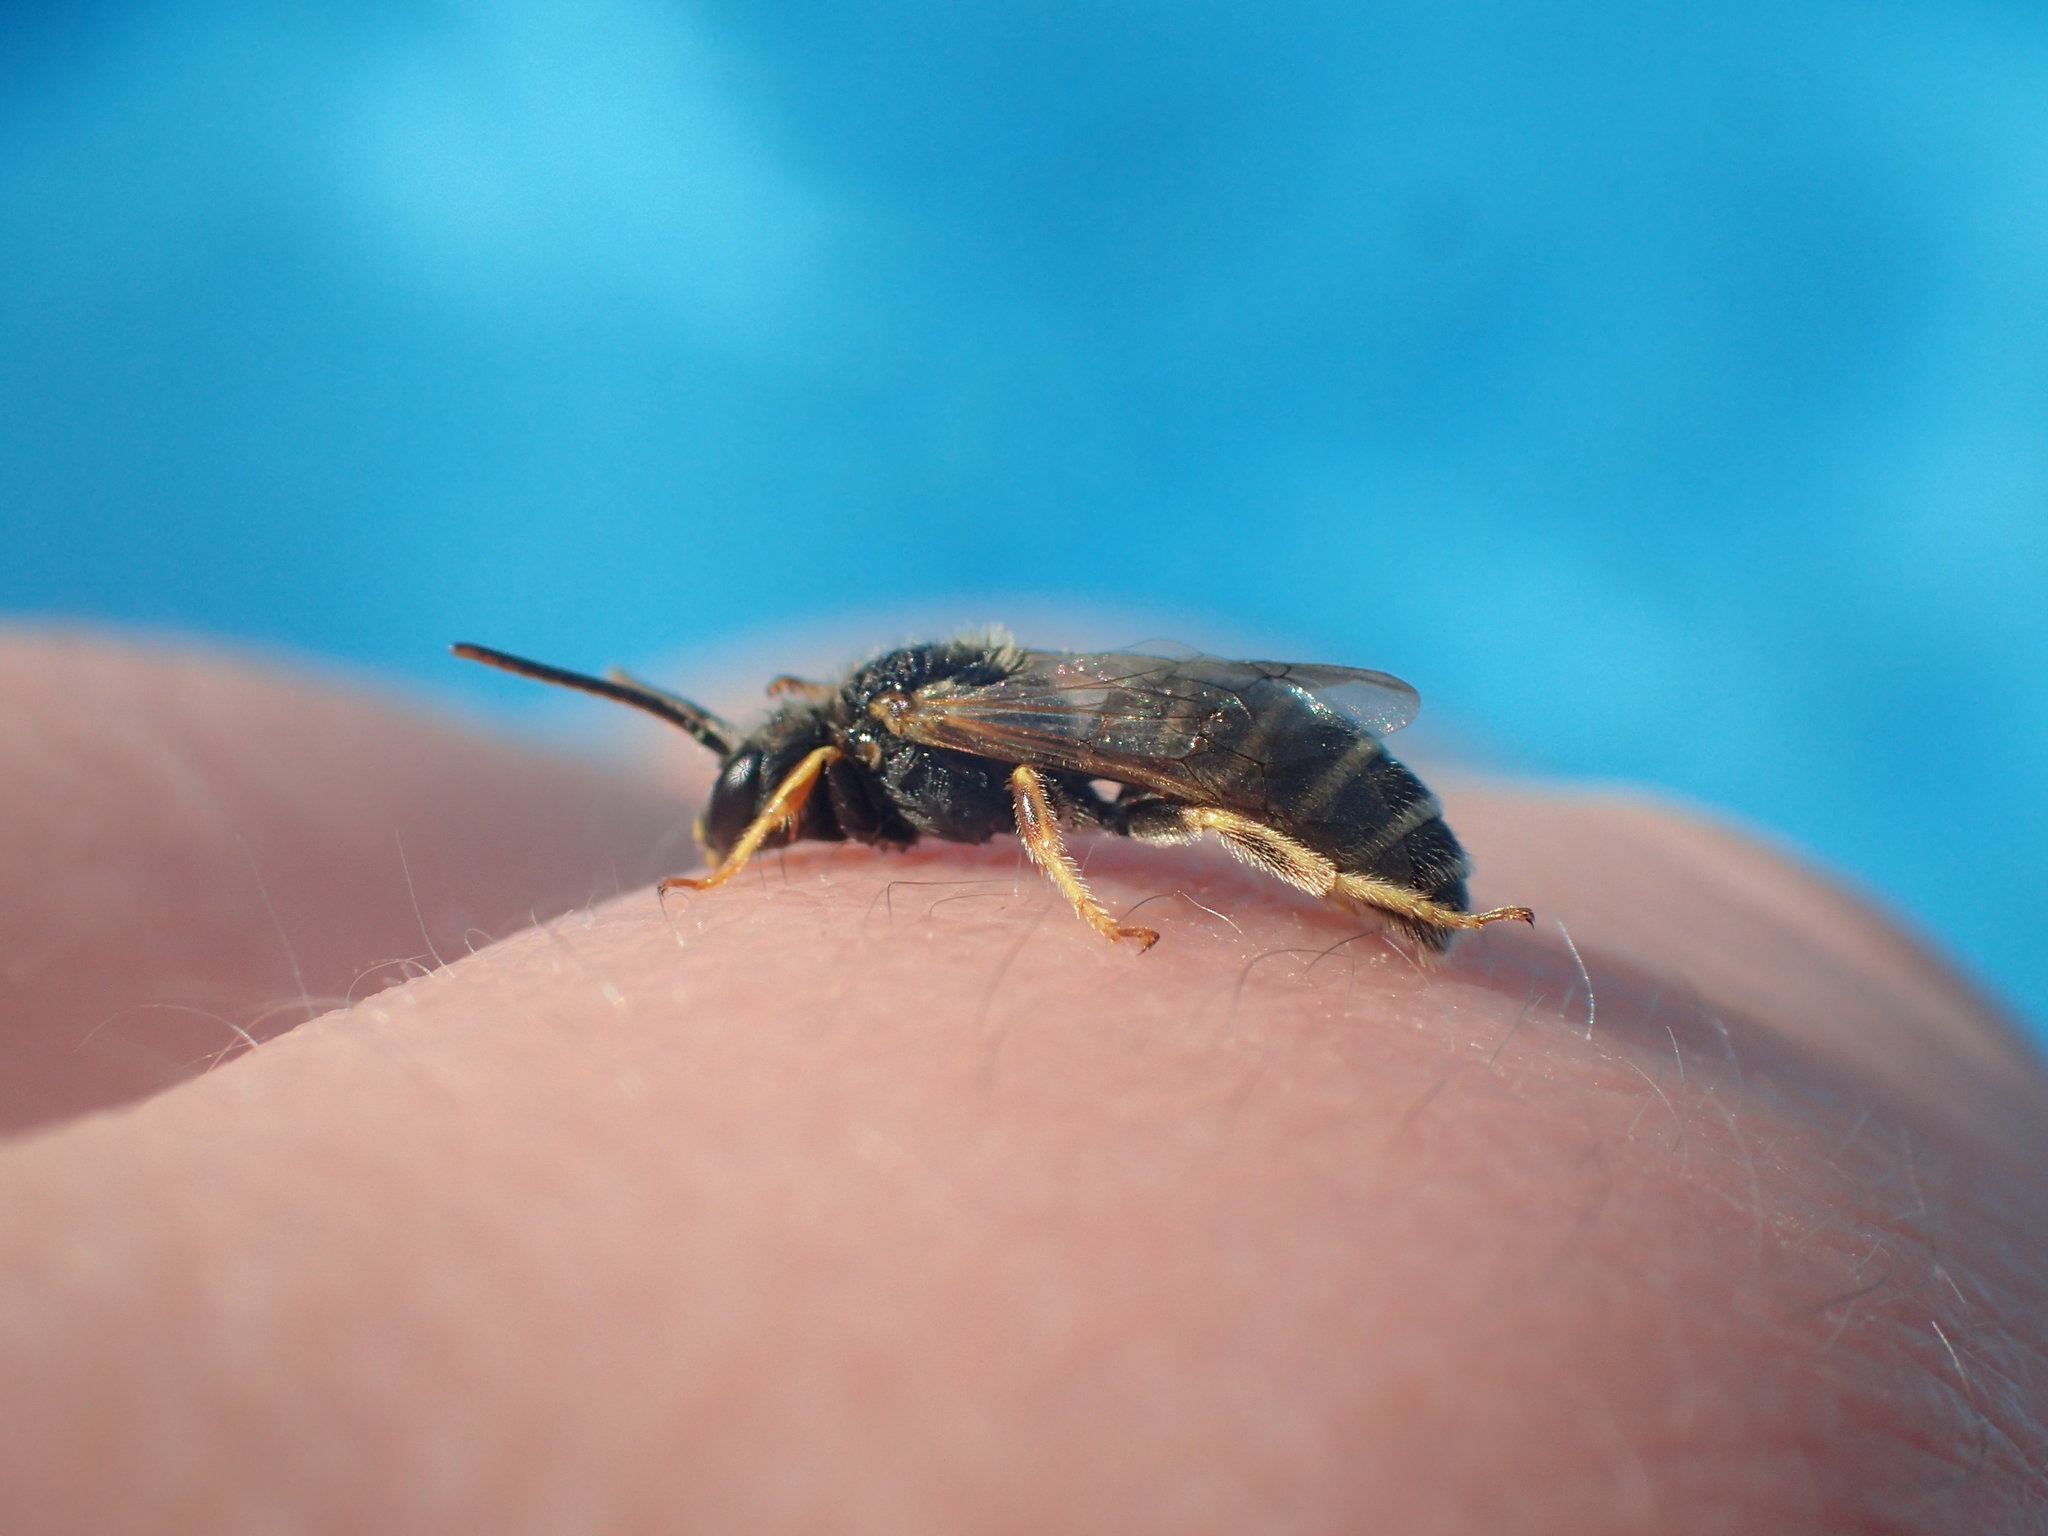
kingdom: Animalia
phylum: Arthropoda
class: Insecta
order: Hymenoptera
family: Halictidae
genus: Halictus
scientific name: Halictus ligatus
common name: Ligated furrow bee
